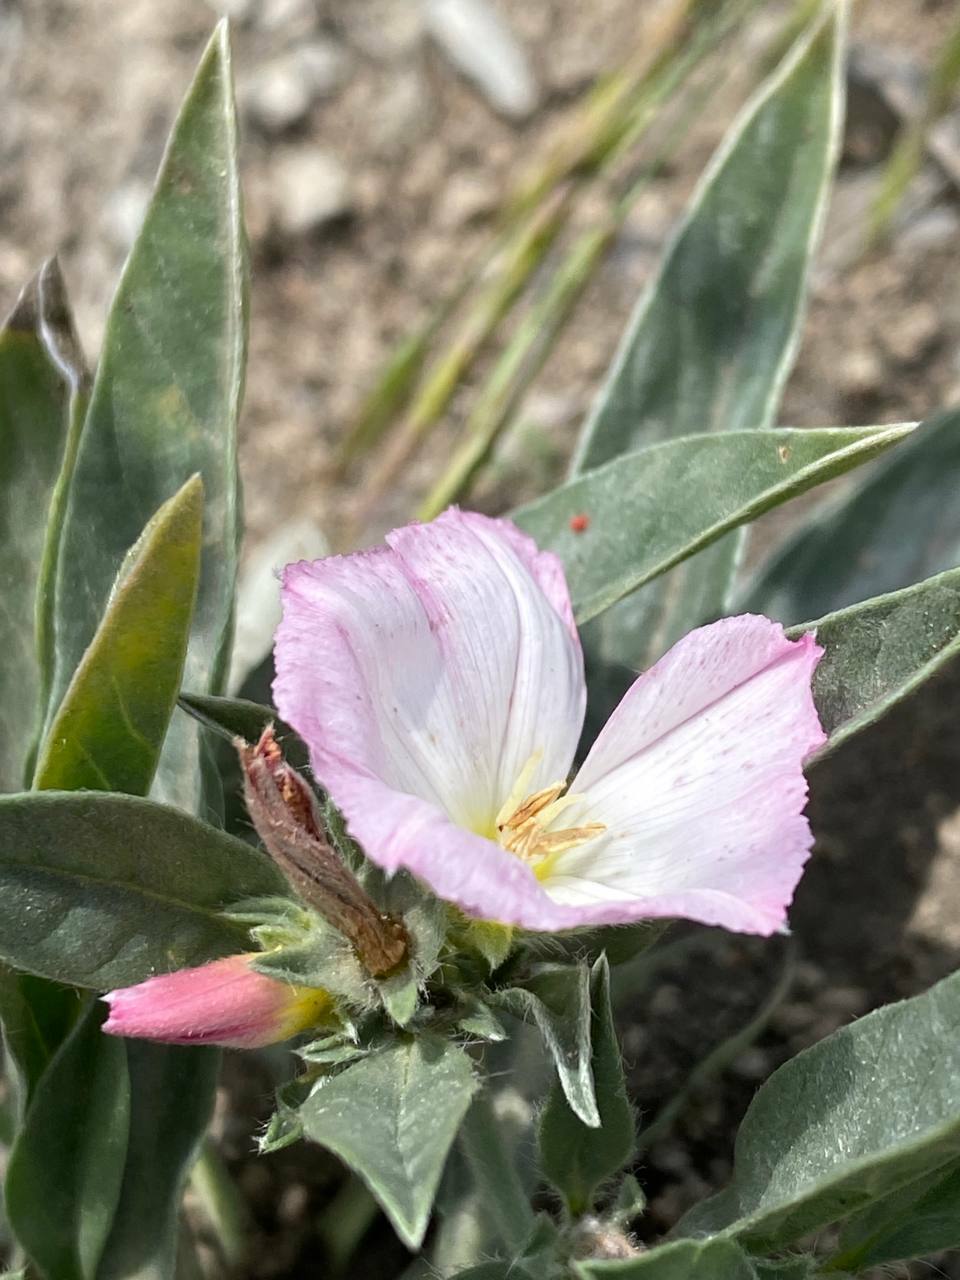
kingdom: Plantae
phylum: Tracheophyta
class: Magnoliopsida
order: Solanales
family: Convolvulaceae
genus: Convolvulus
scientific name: Convolvulus lineatus
